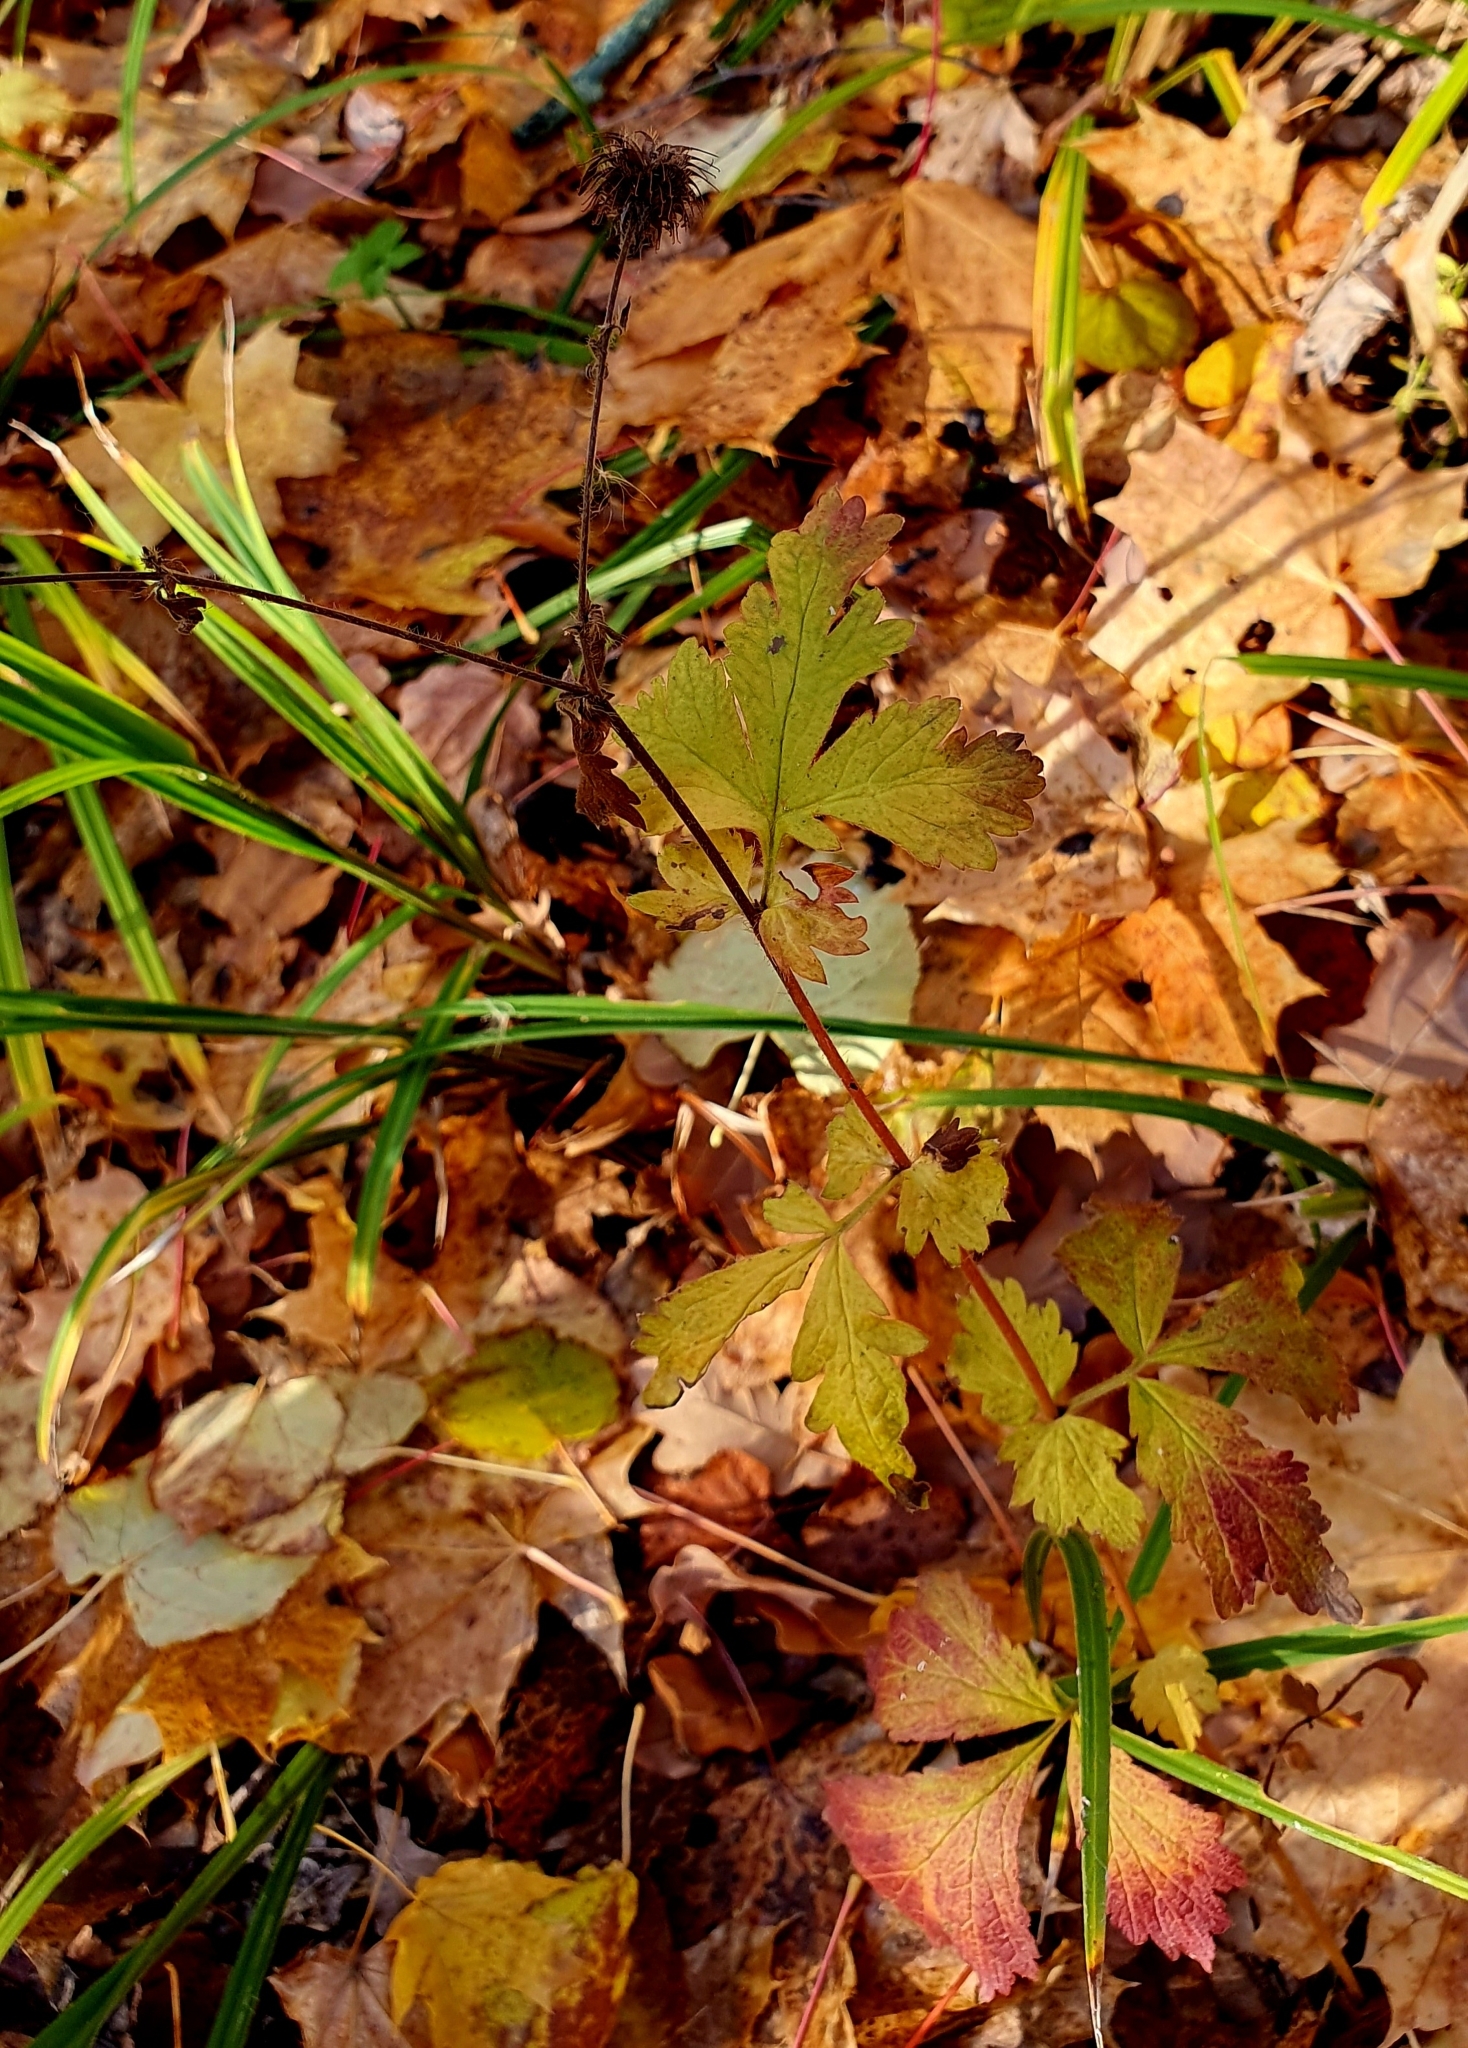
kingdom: Plantae
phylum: Tracheophyta
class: Magnoliopsida
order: Rosales
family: Rosaceae
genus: Geum
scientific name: Geum urbanum
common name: Wood avens
